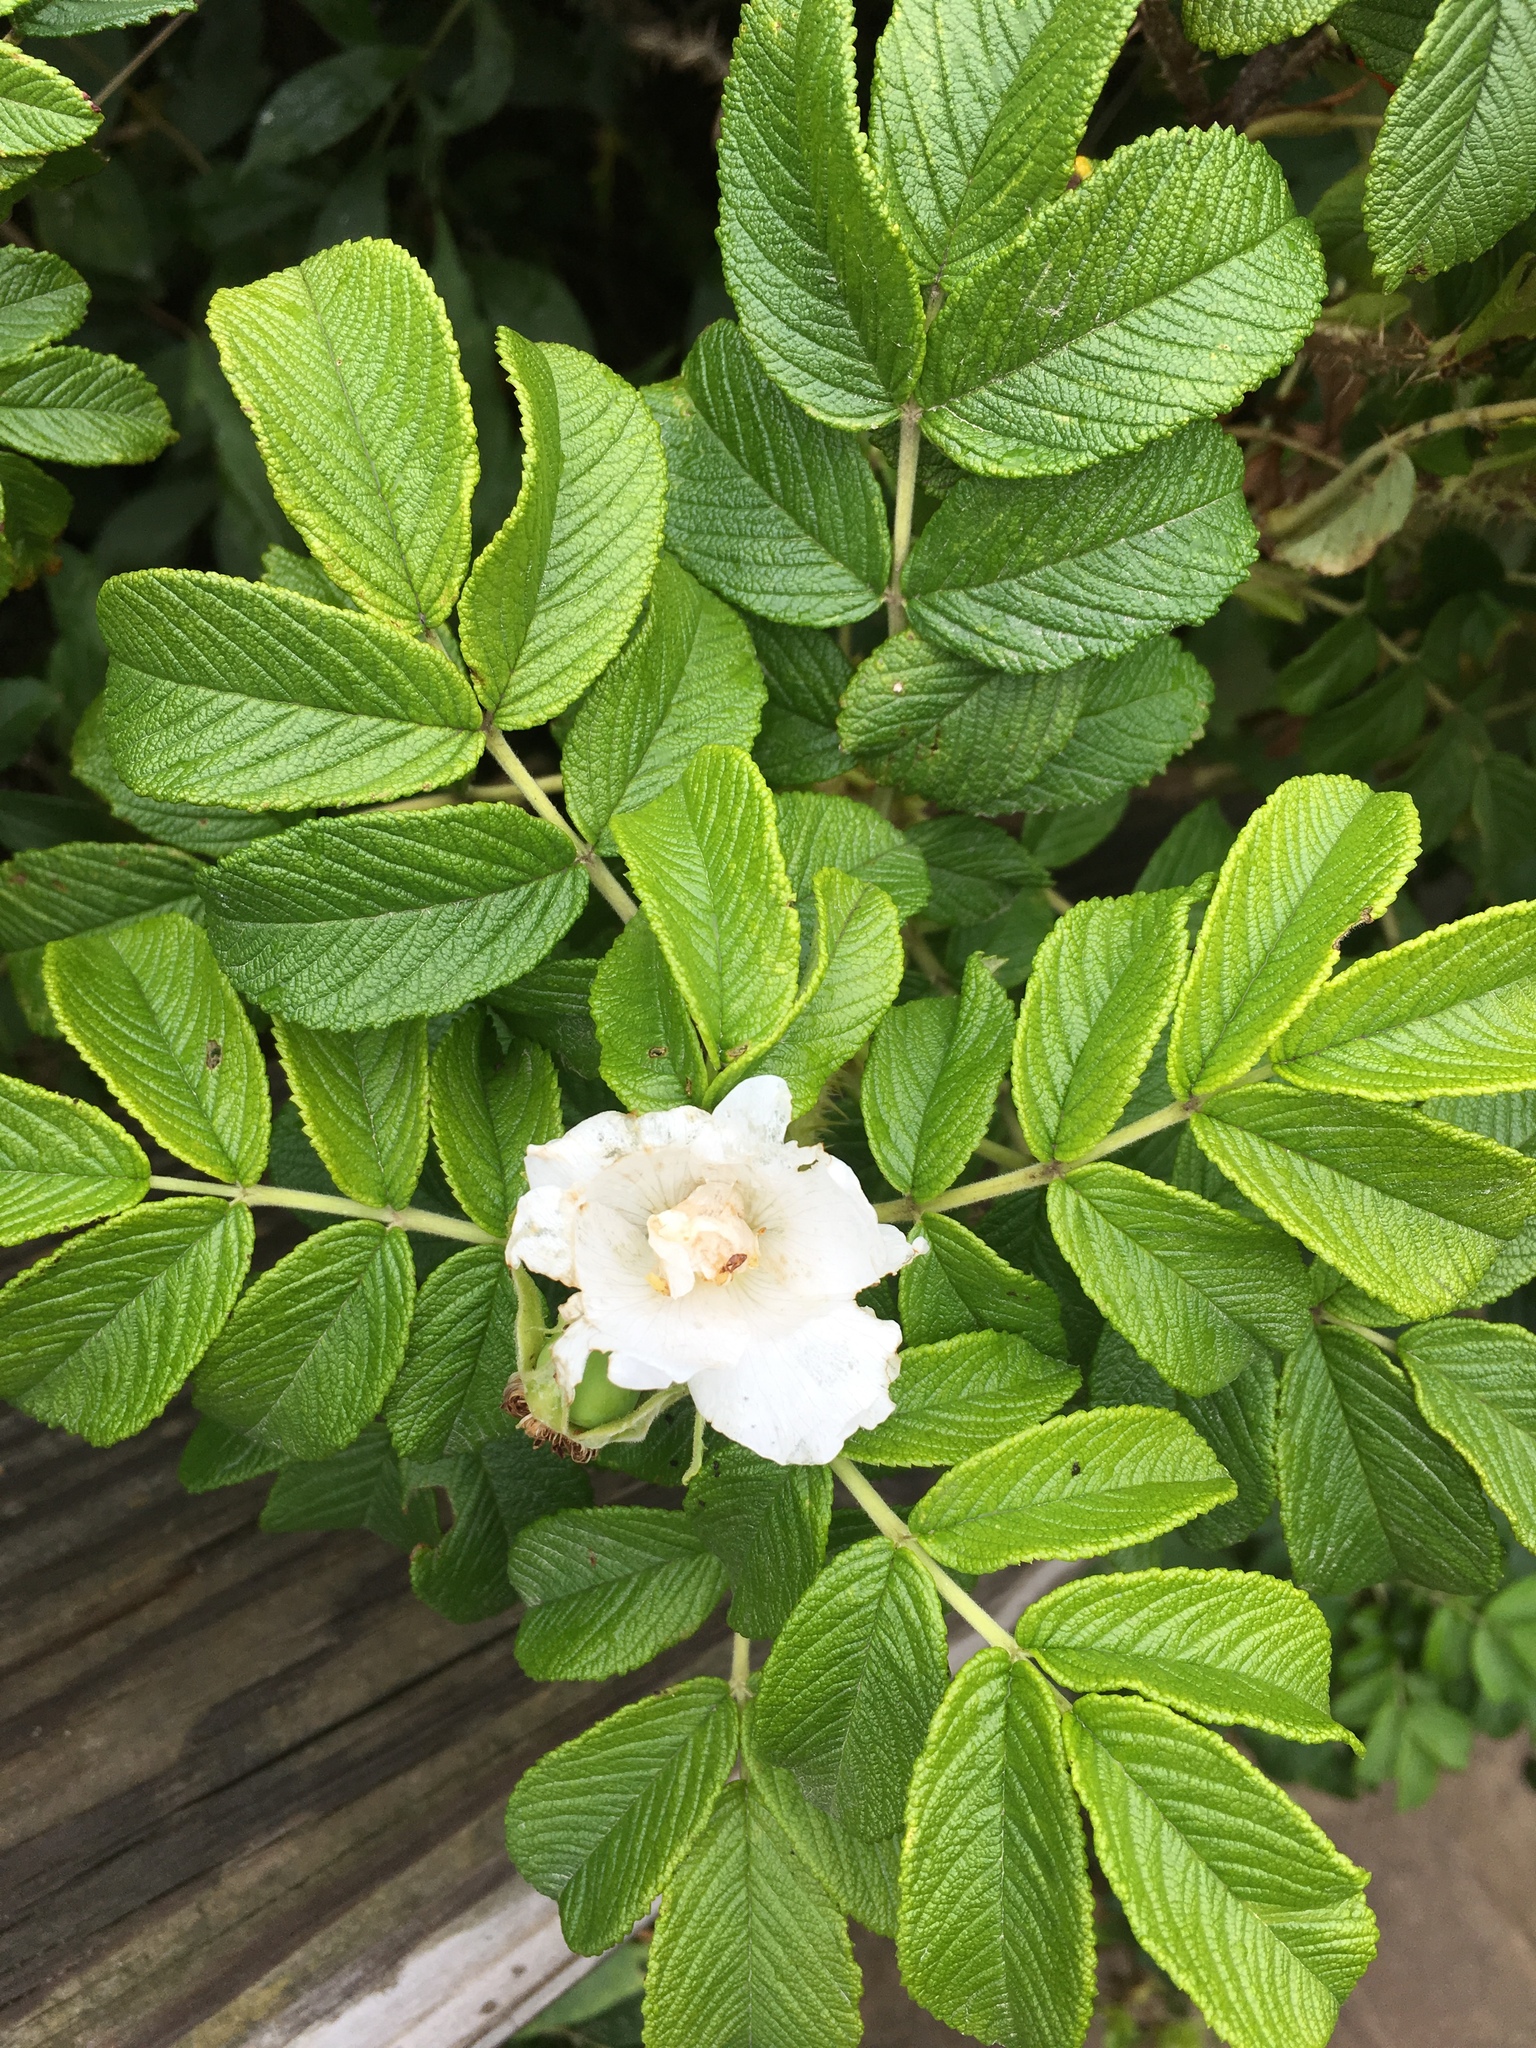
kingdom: Plantae
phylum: Tracheophyta
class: Magnoliopsida
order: Rosales
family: Rosaceae
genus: Rosa
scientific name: Rosa rugosa
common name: Japanese rose
